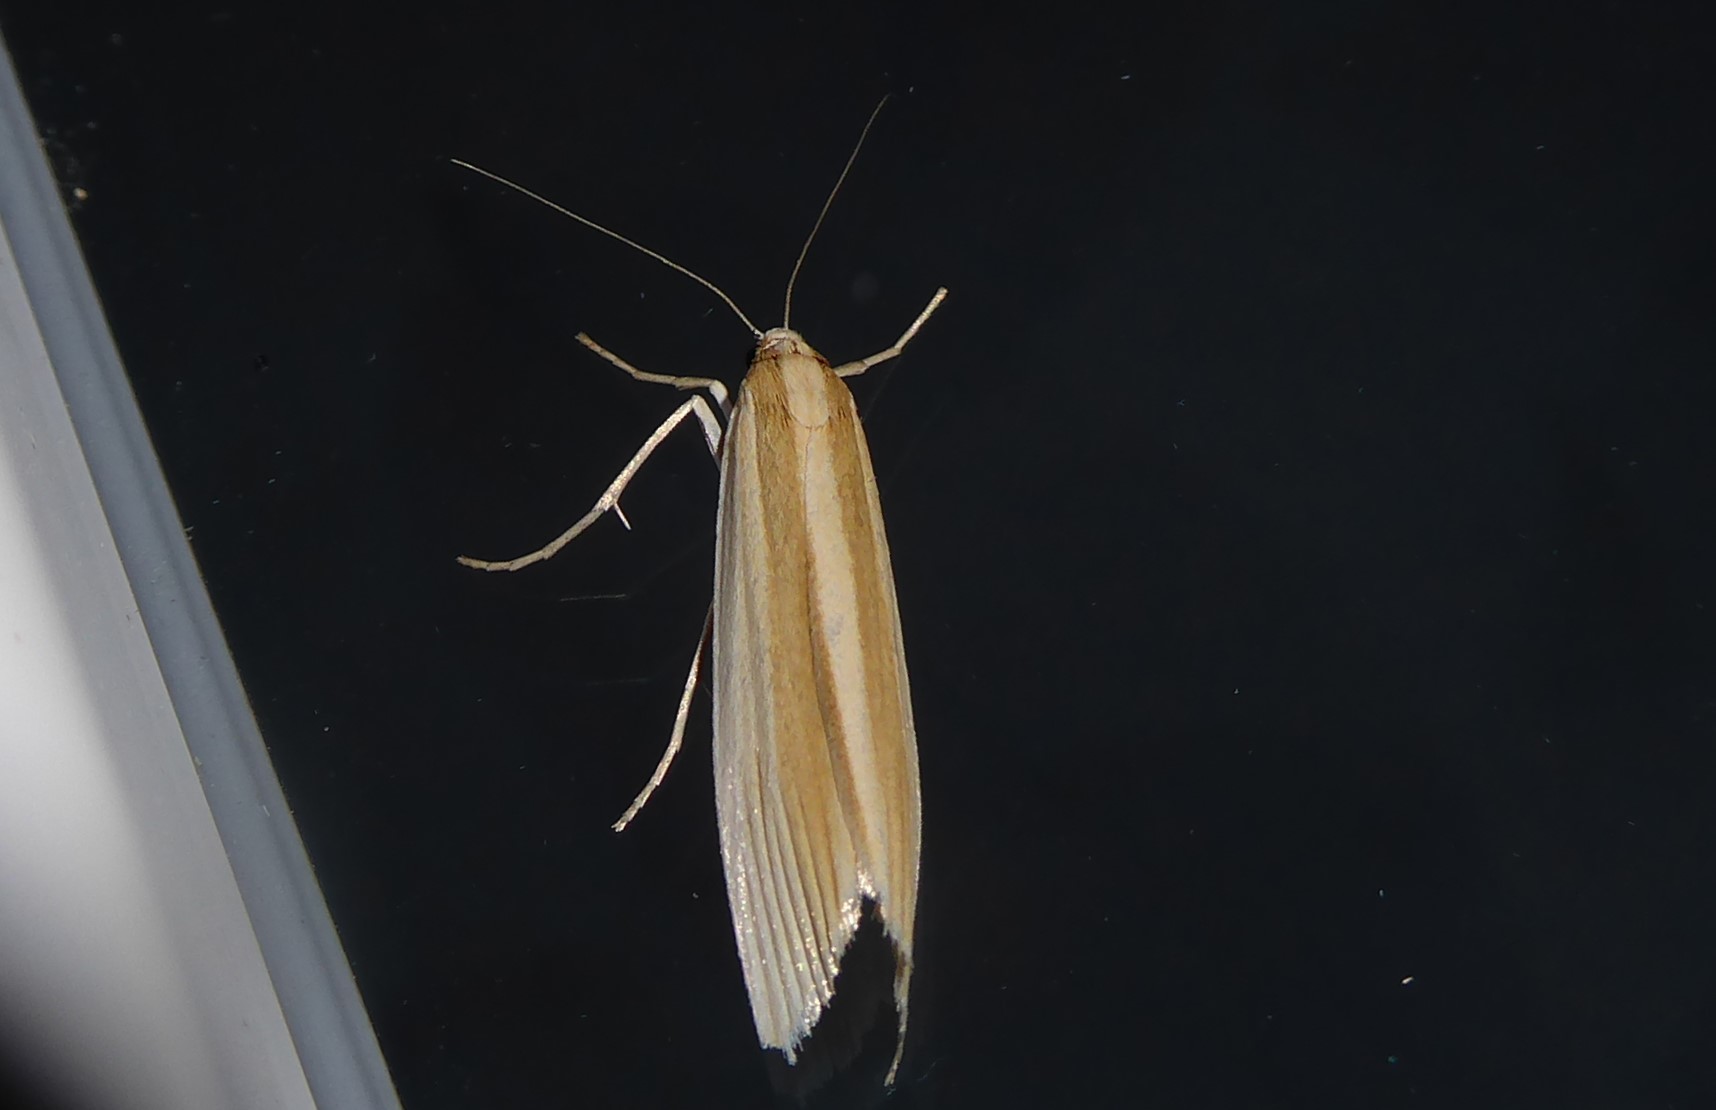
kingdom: Animalia
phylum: Arthropoda
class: Insecta
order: Lepidoptera
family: Crambidae
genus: Orocrambus
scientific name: Orocrambus angustipennis
